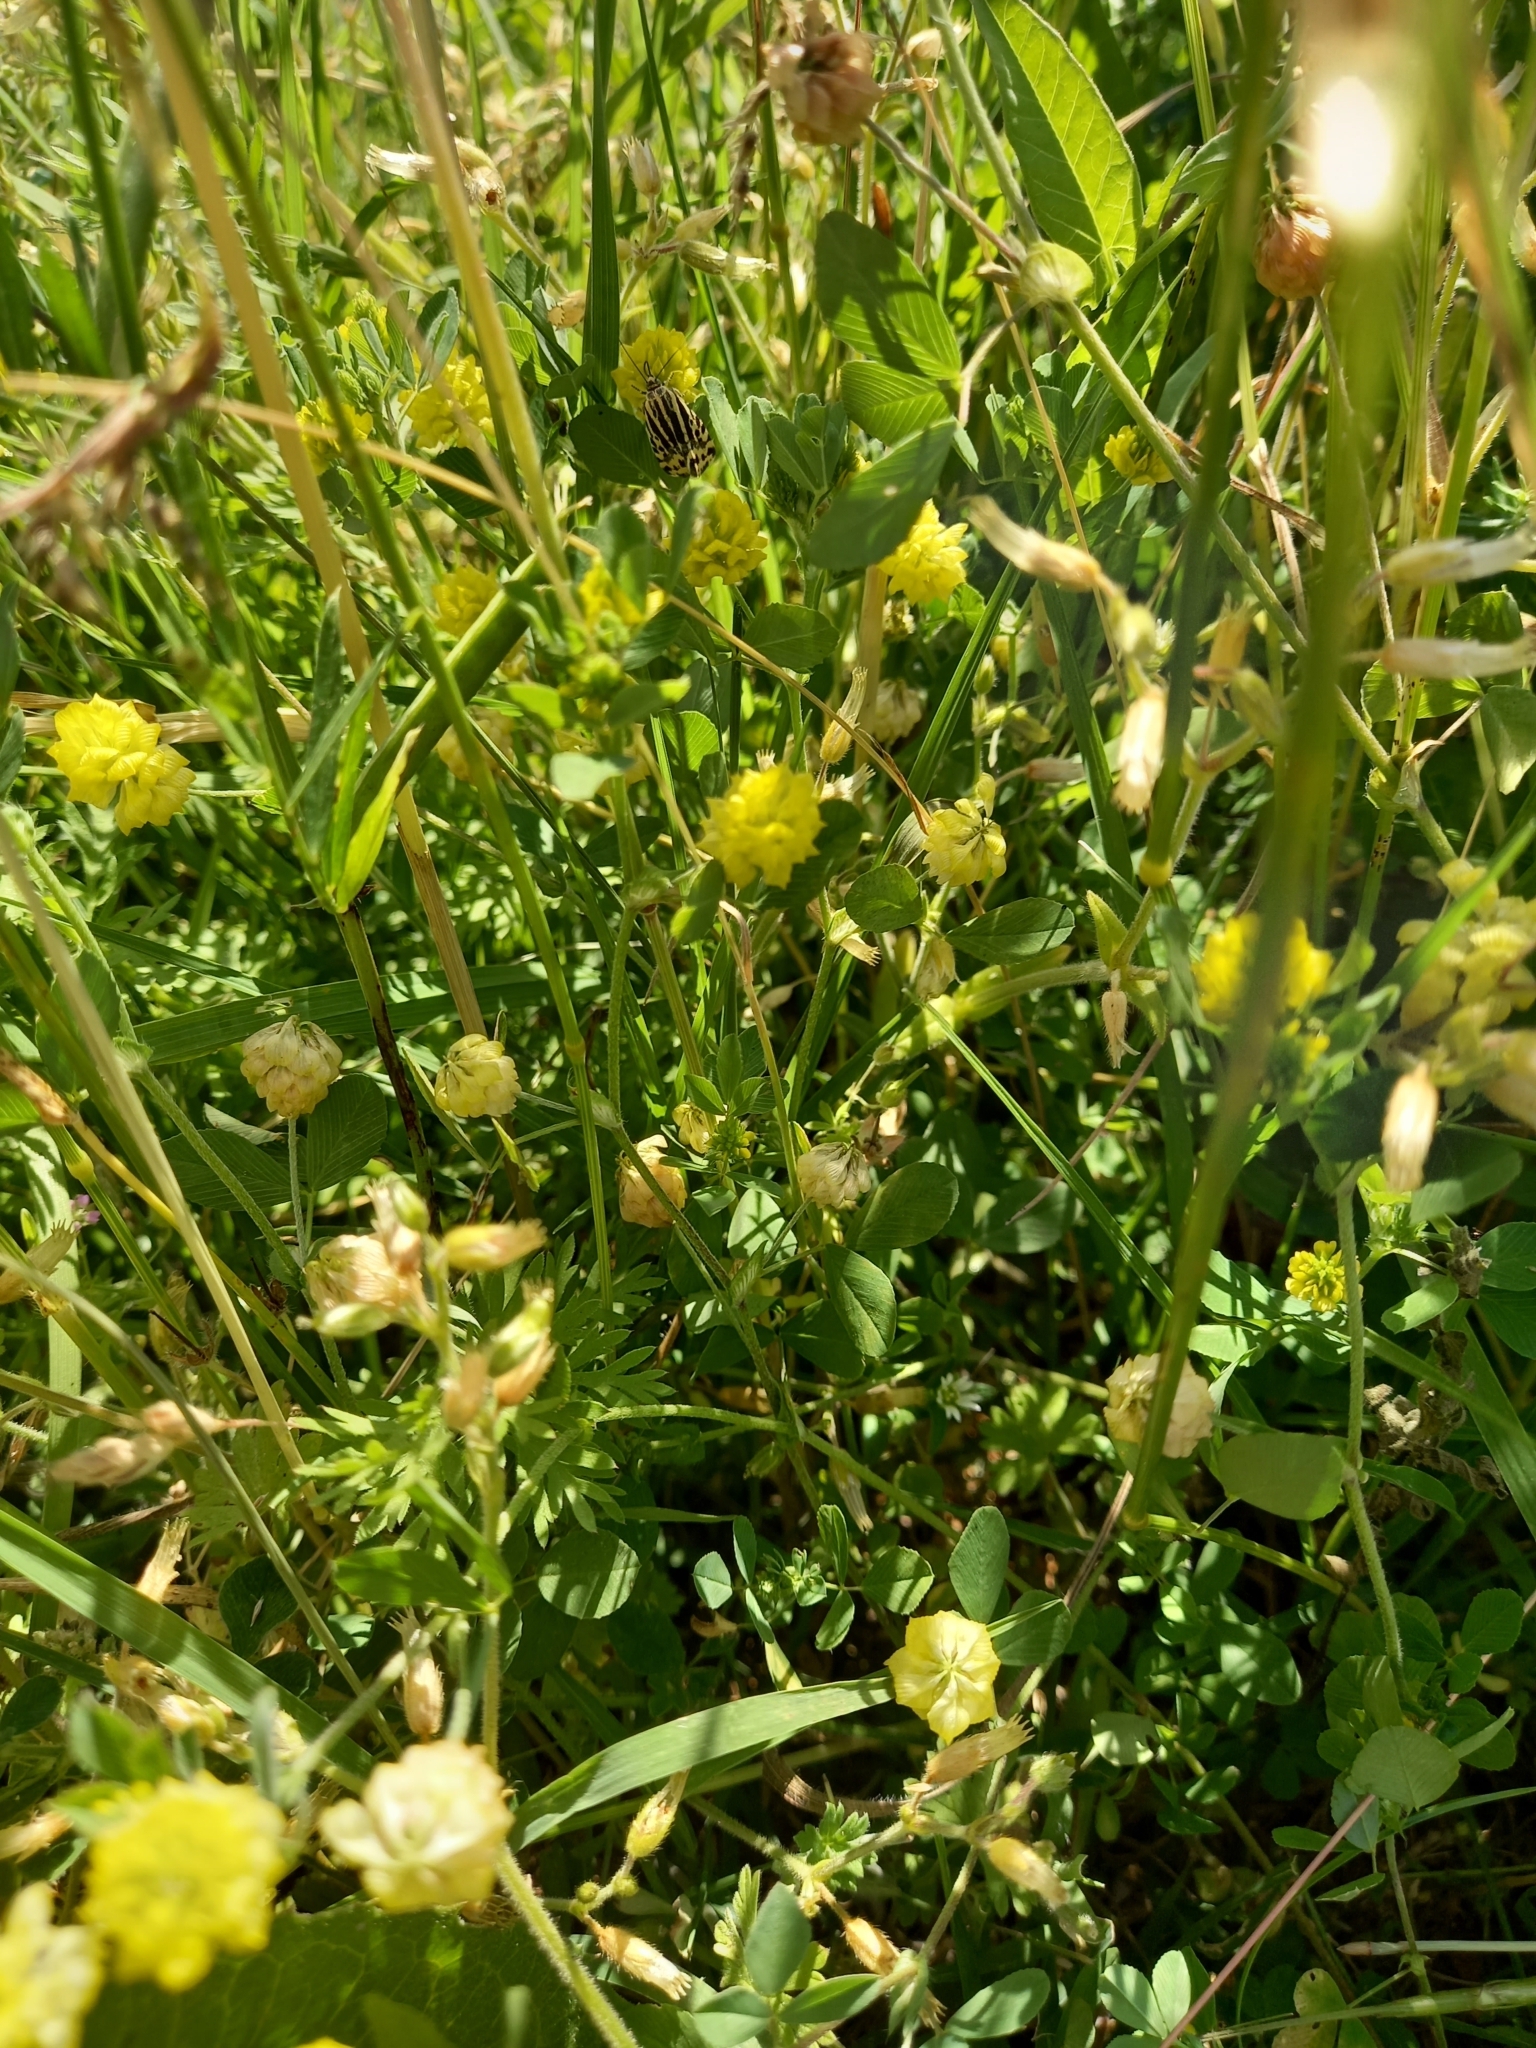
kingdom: Plantae
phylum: Tracheophyta
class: Magnoliopsida
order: Fabales
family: Fabaceae
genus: Trifolium
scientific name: Trifolium campestre
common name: Field clover
